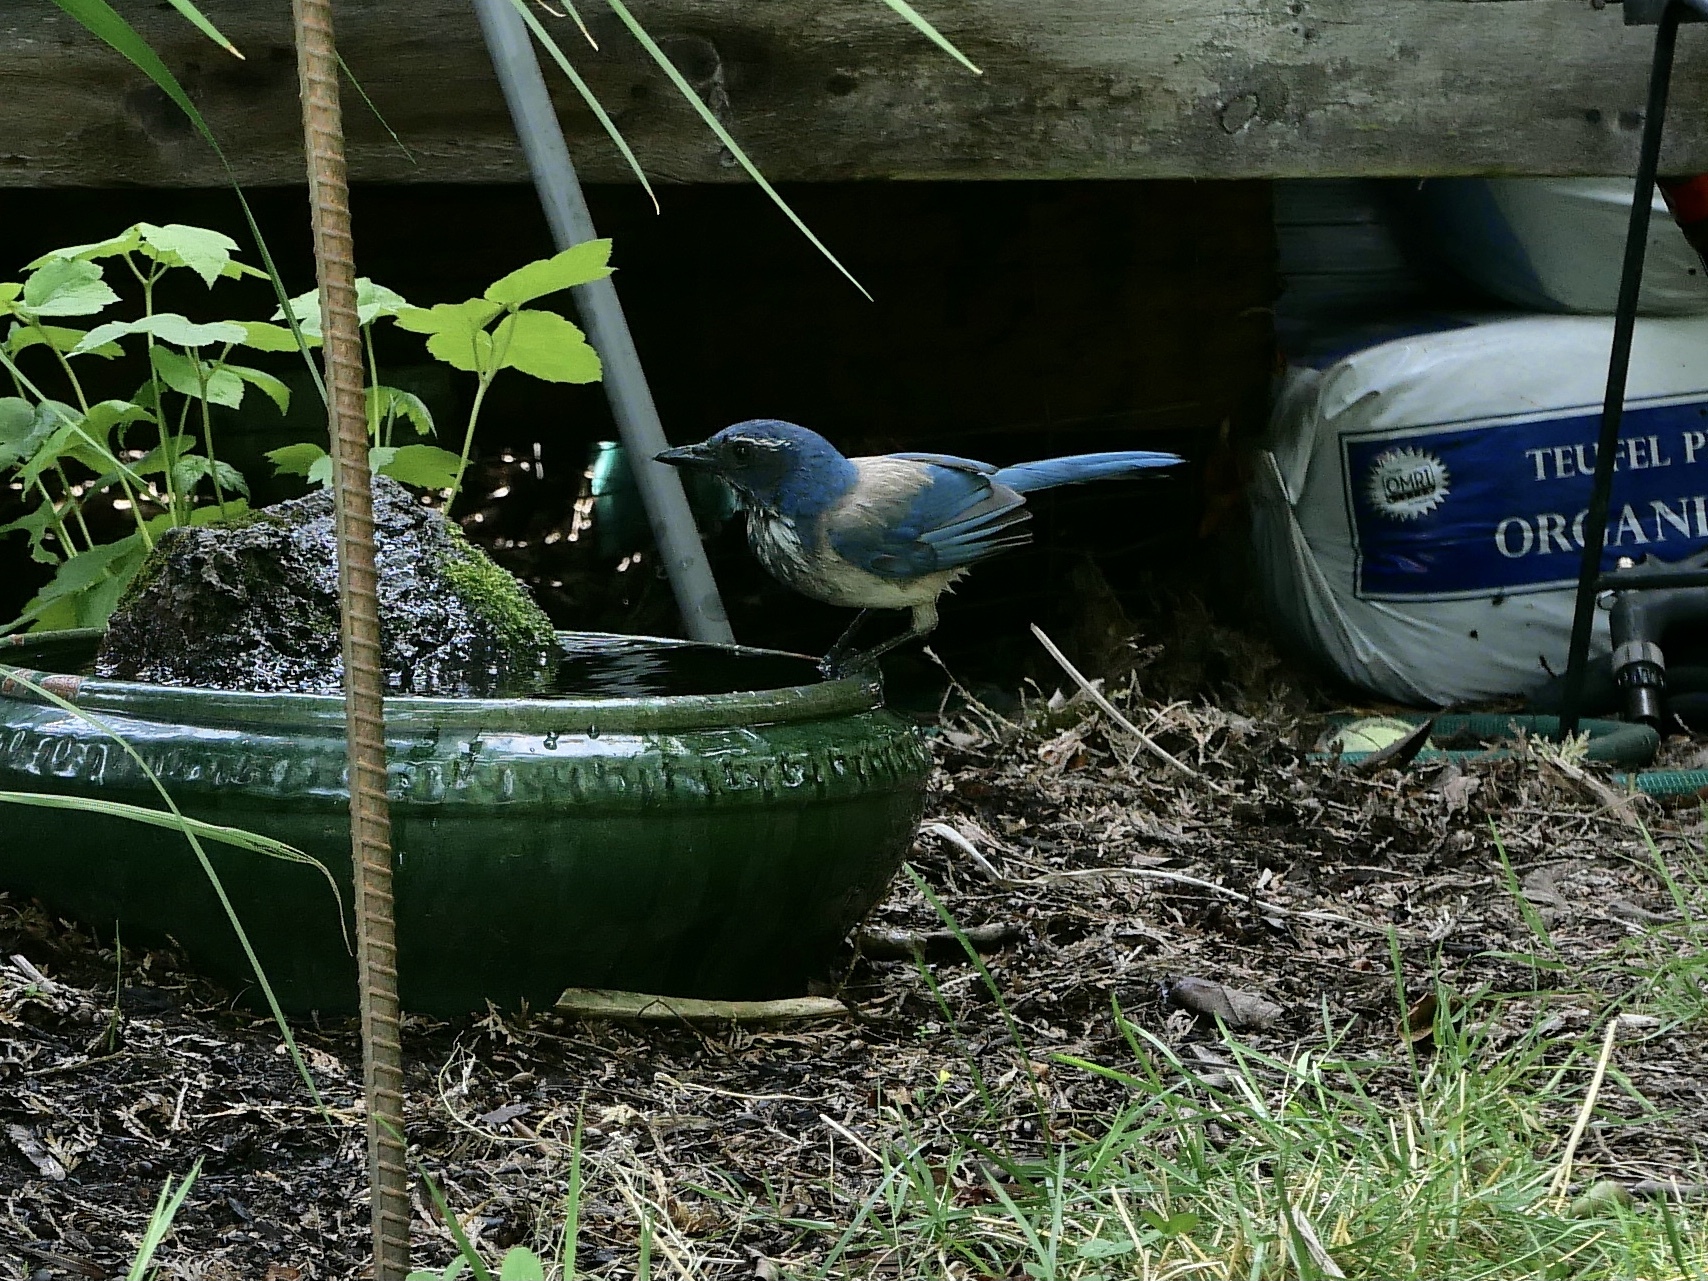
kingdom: Animalia
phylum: Chordata
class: Aves
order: Passeriformes
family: Corvidae
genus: Aphelocoma
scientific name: Aphelocoma californica
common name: California scrub-jay
